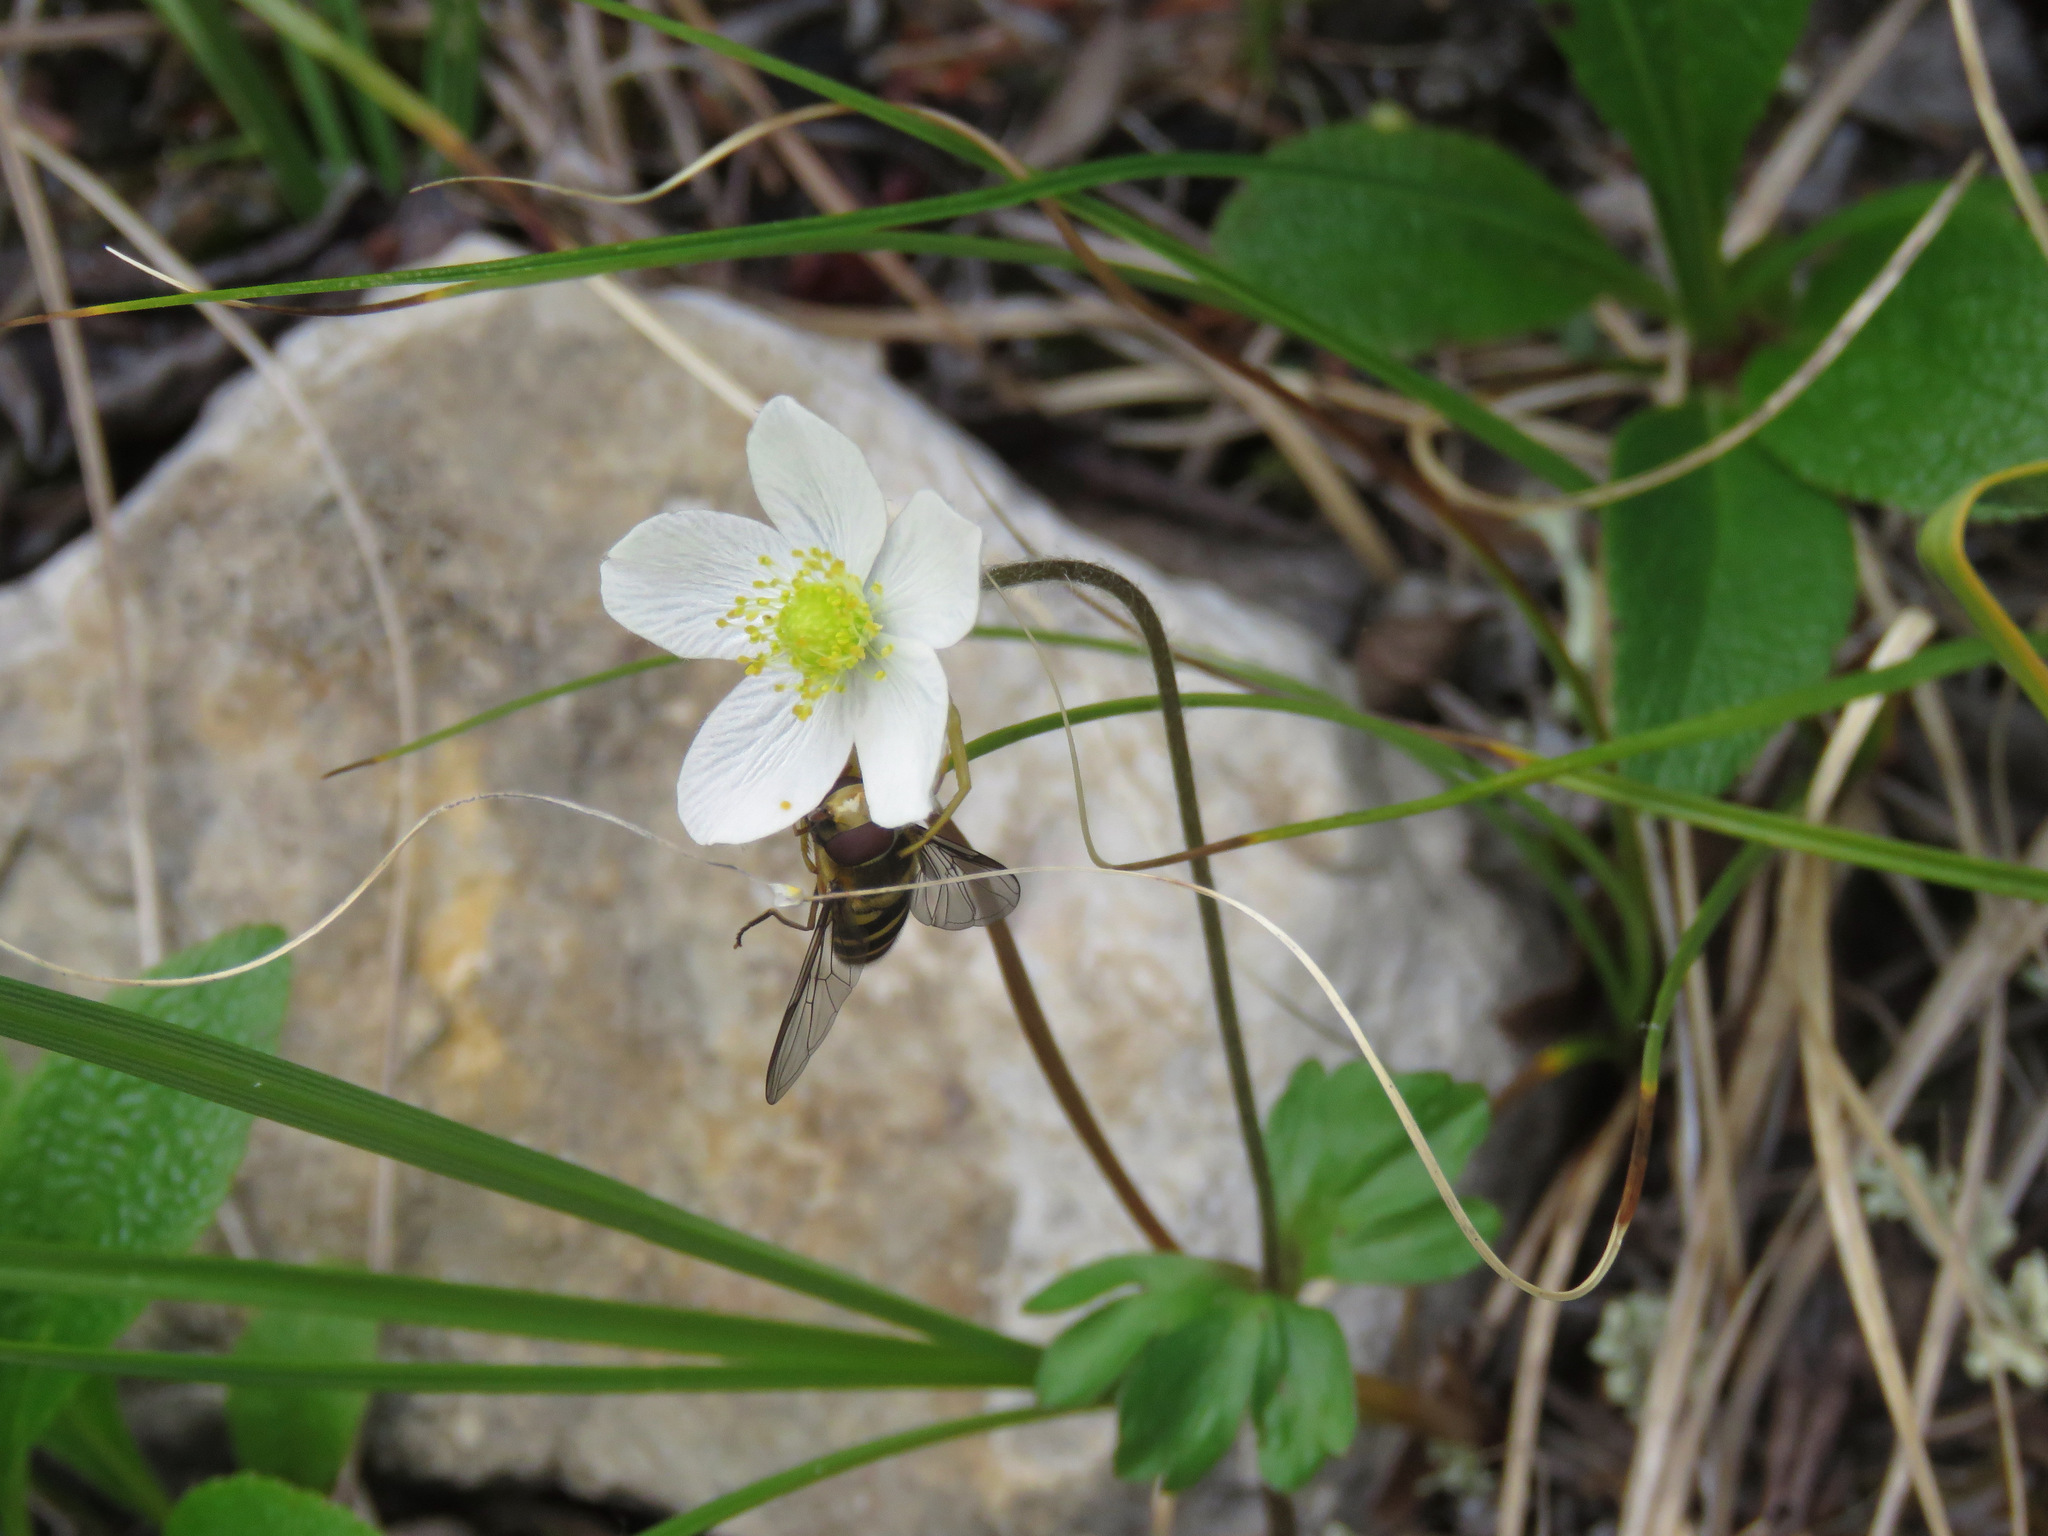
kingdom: Plantae
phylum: Tracheophyta
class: Magnoliopsida
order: Ranunculales
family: Ranunculaceae
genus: Anemone
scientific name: Anemone parviflora
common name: Northern anemone
